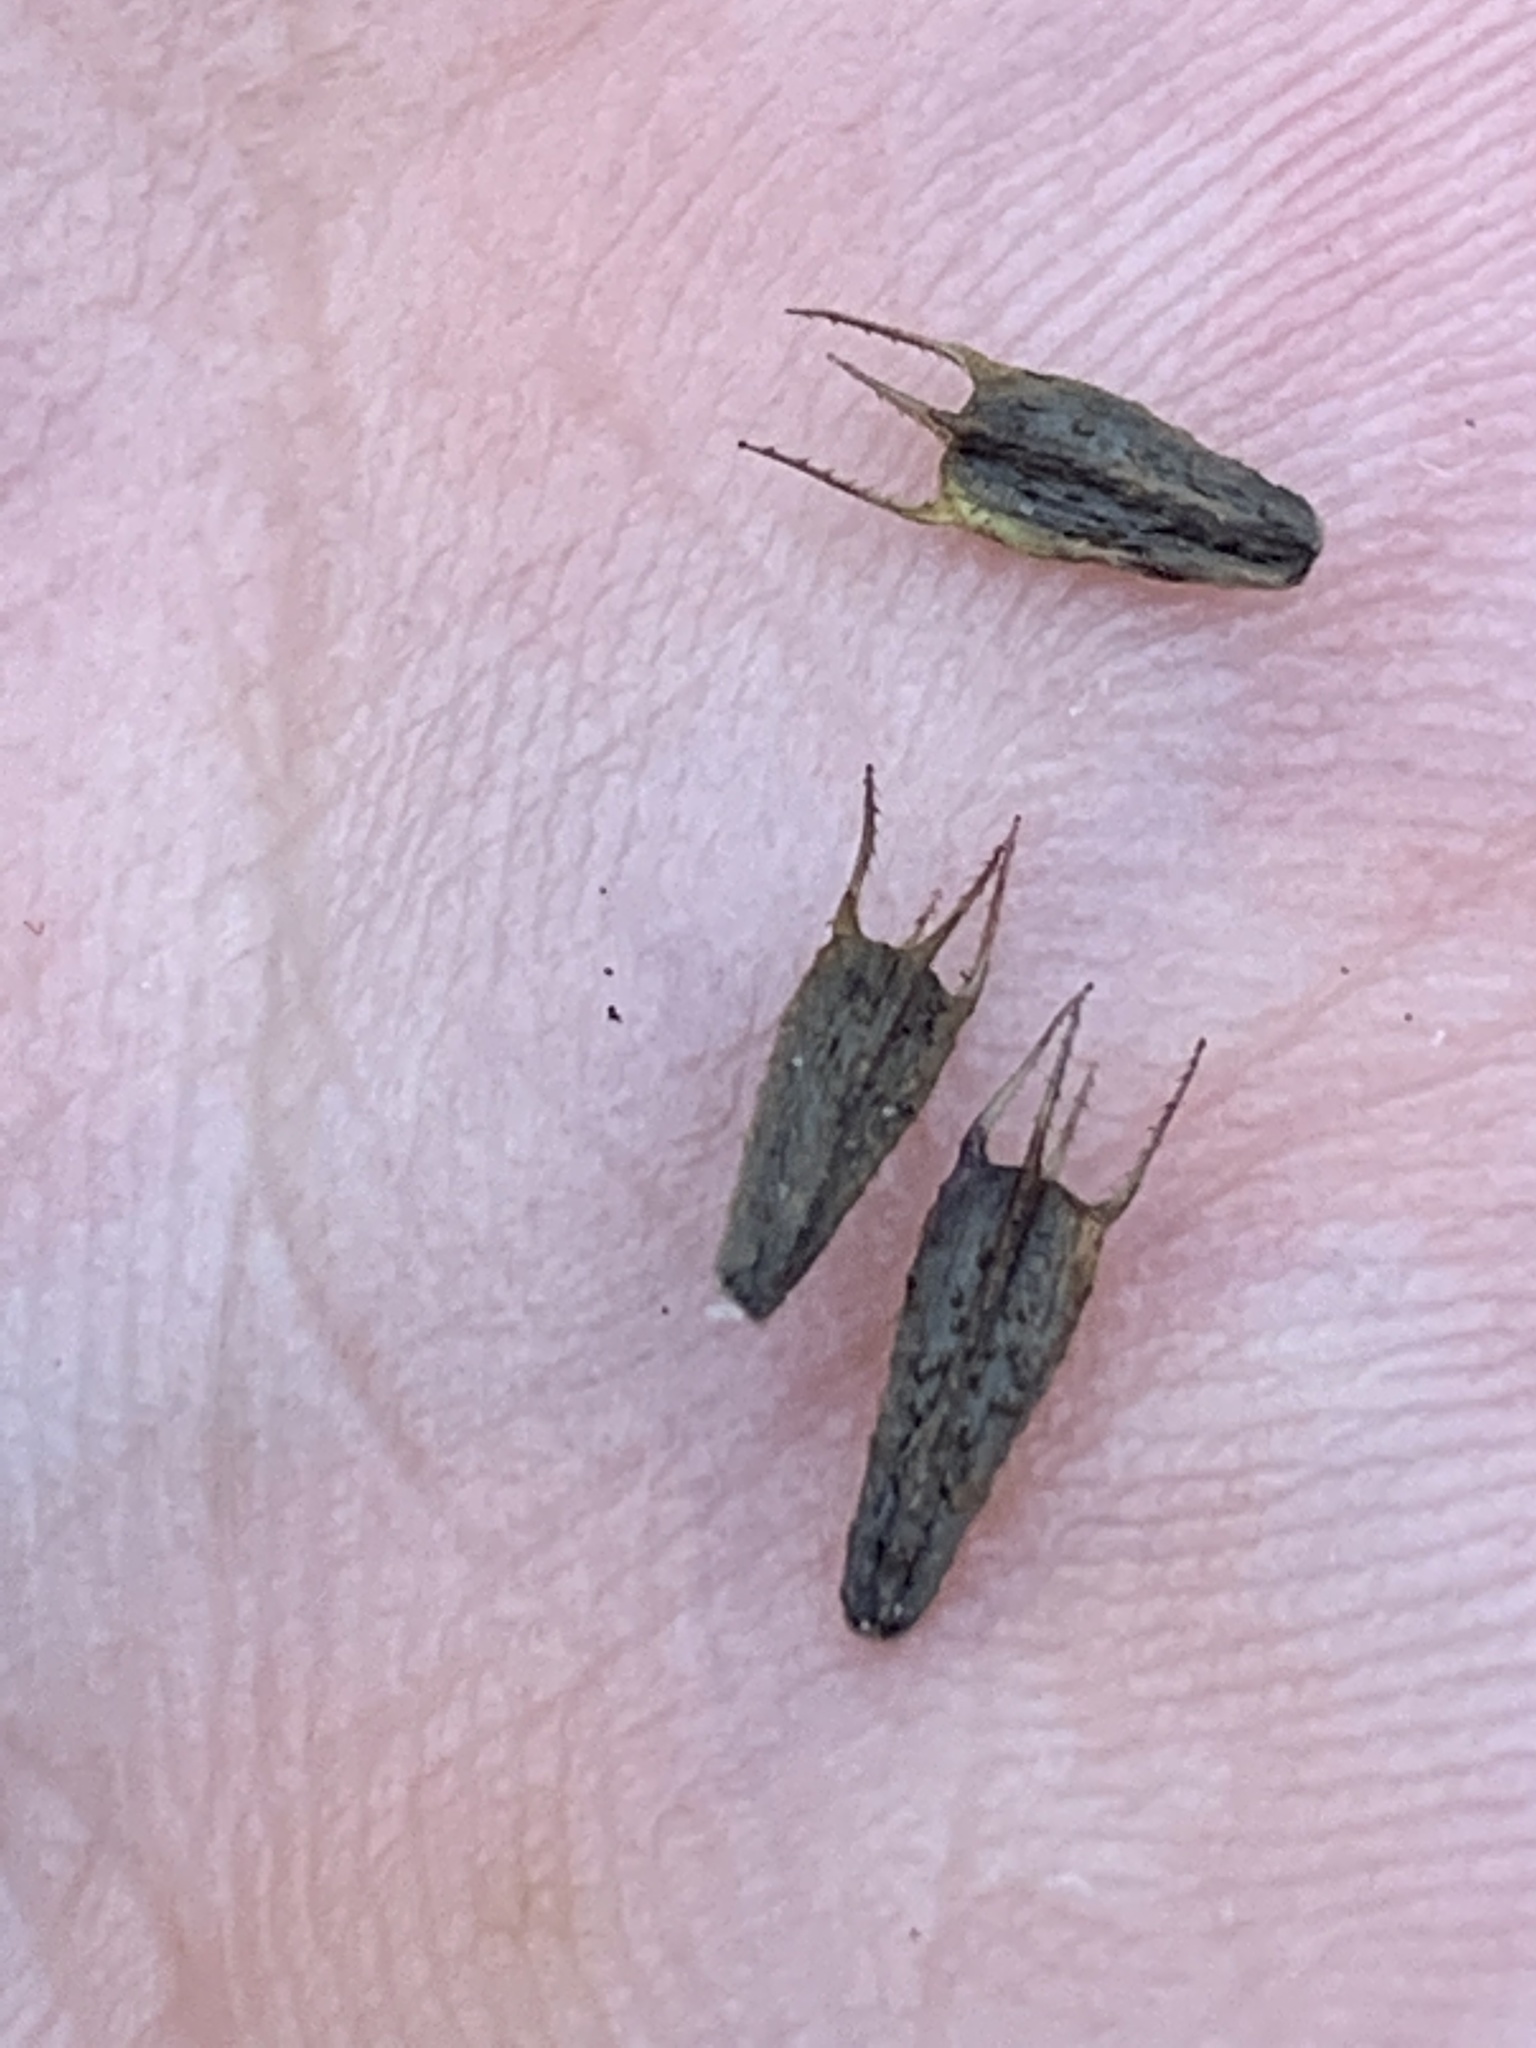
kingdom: Plantae
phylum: Tracheophyta
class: Magnoliopsida
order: Asterales
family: Asteraceae
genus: Bidens
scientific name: Bidens connata
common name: London bur-marigold
